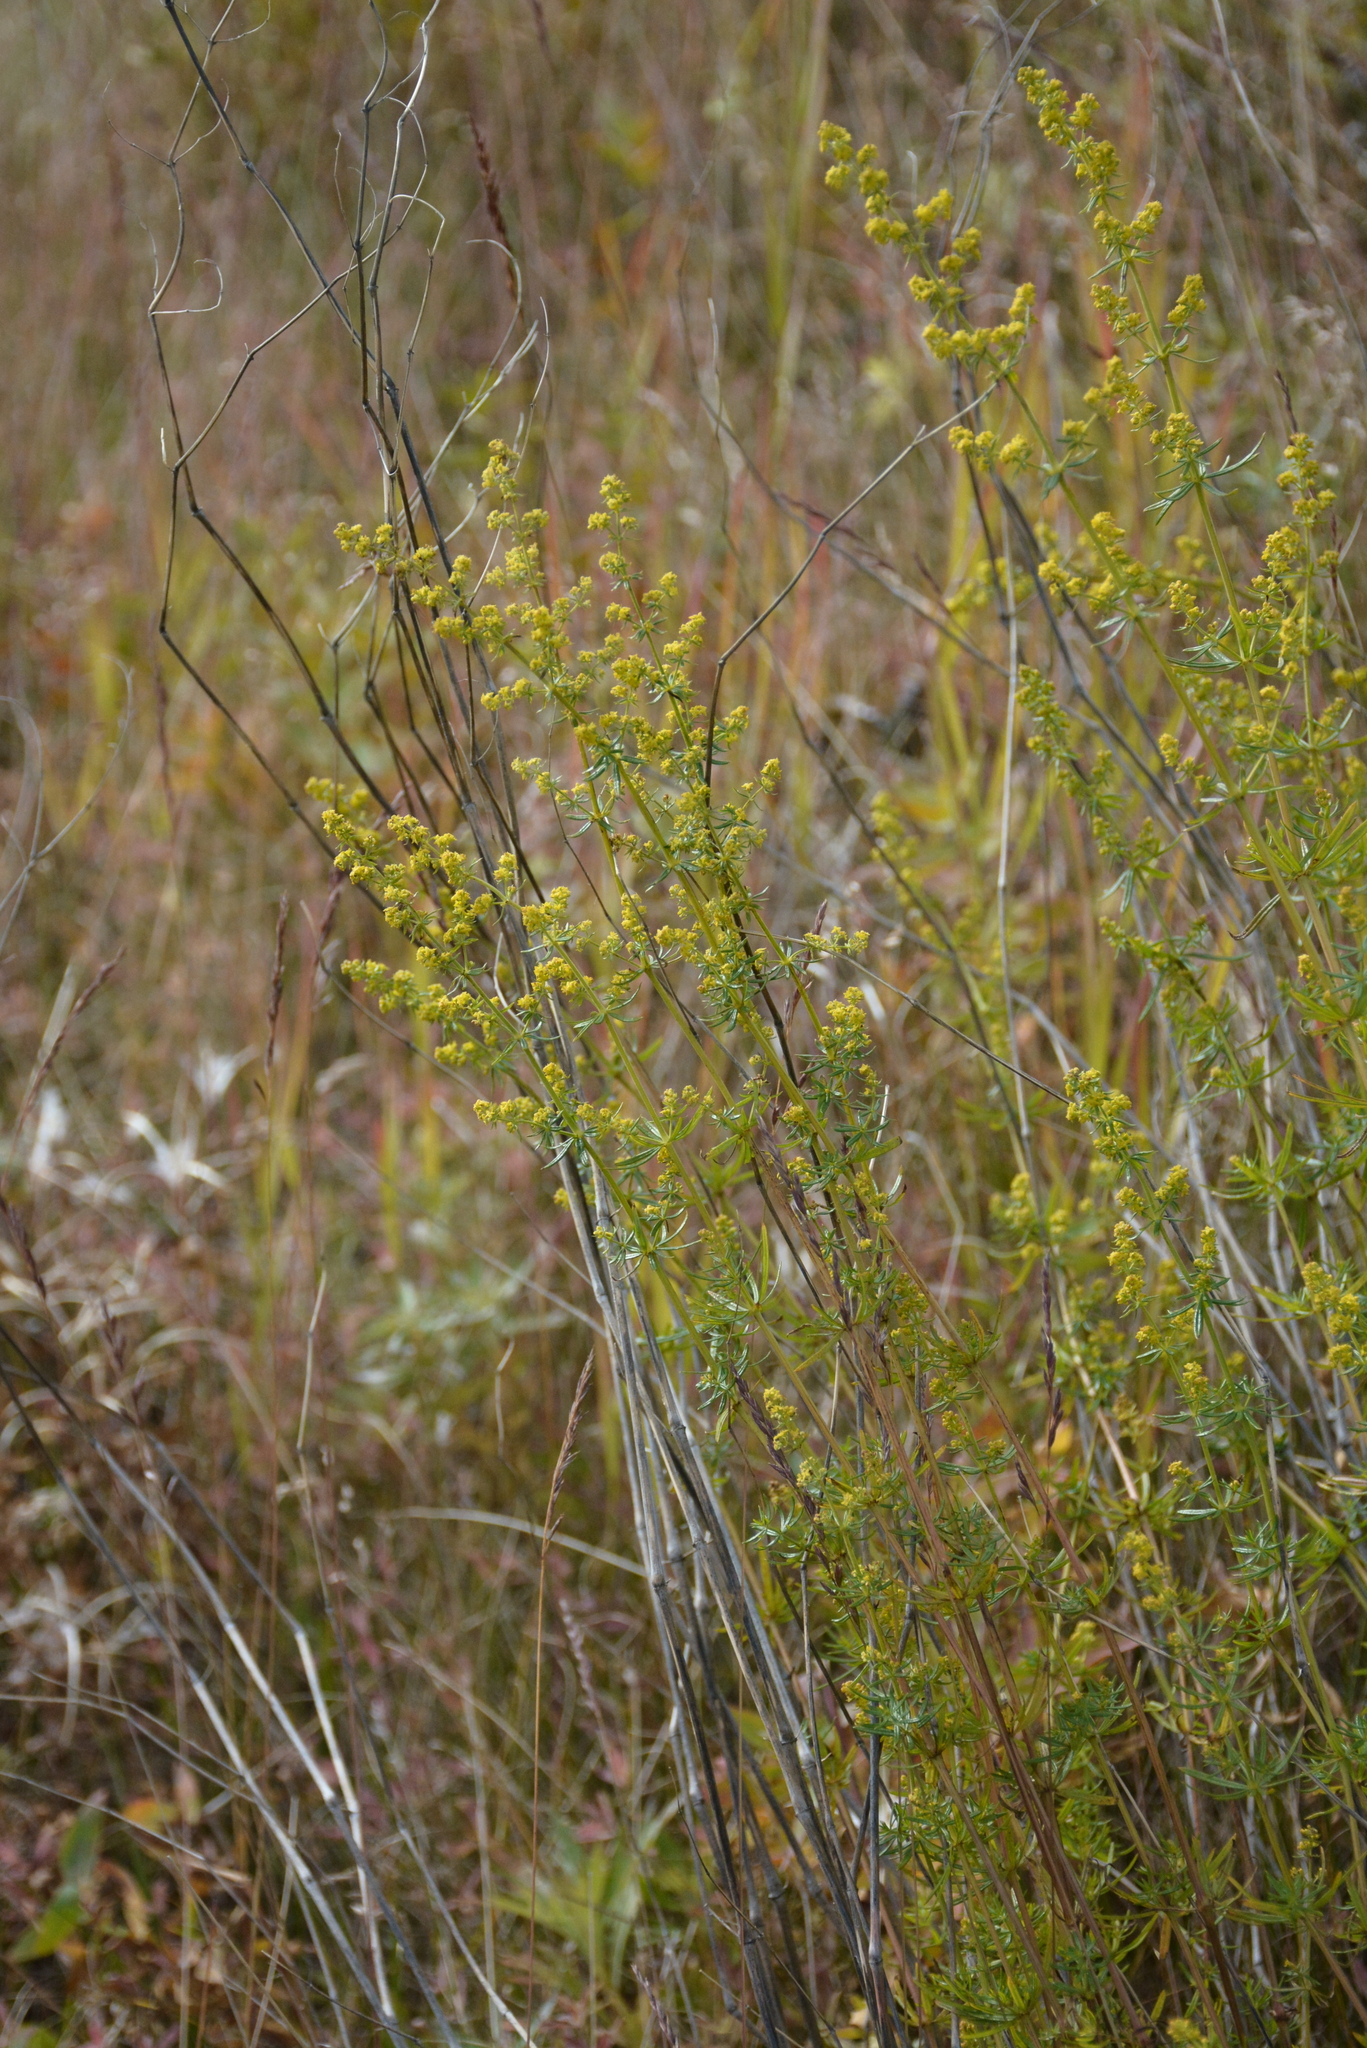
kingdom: Plantae
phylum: Tracheophyta
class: Magnoliopsida
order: Gentianales
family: Rubiaceae
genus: Galium
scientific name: Galium verum
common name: Lady's bedstraw
